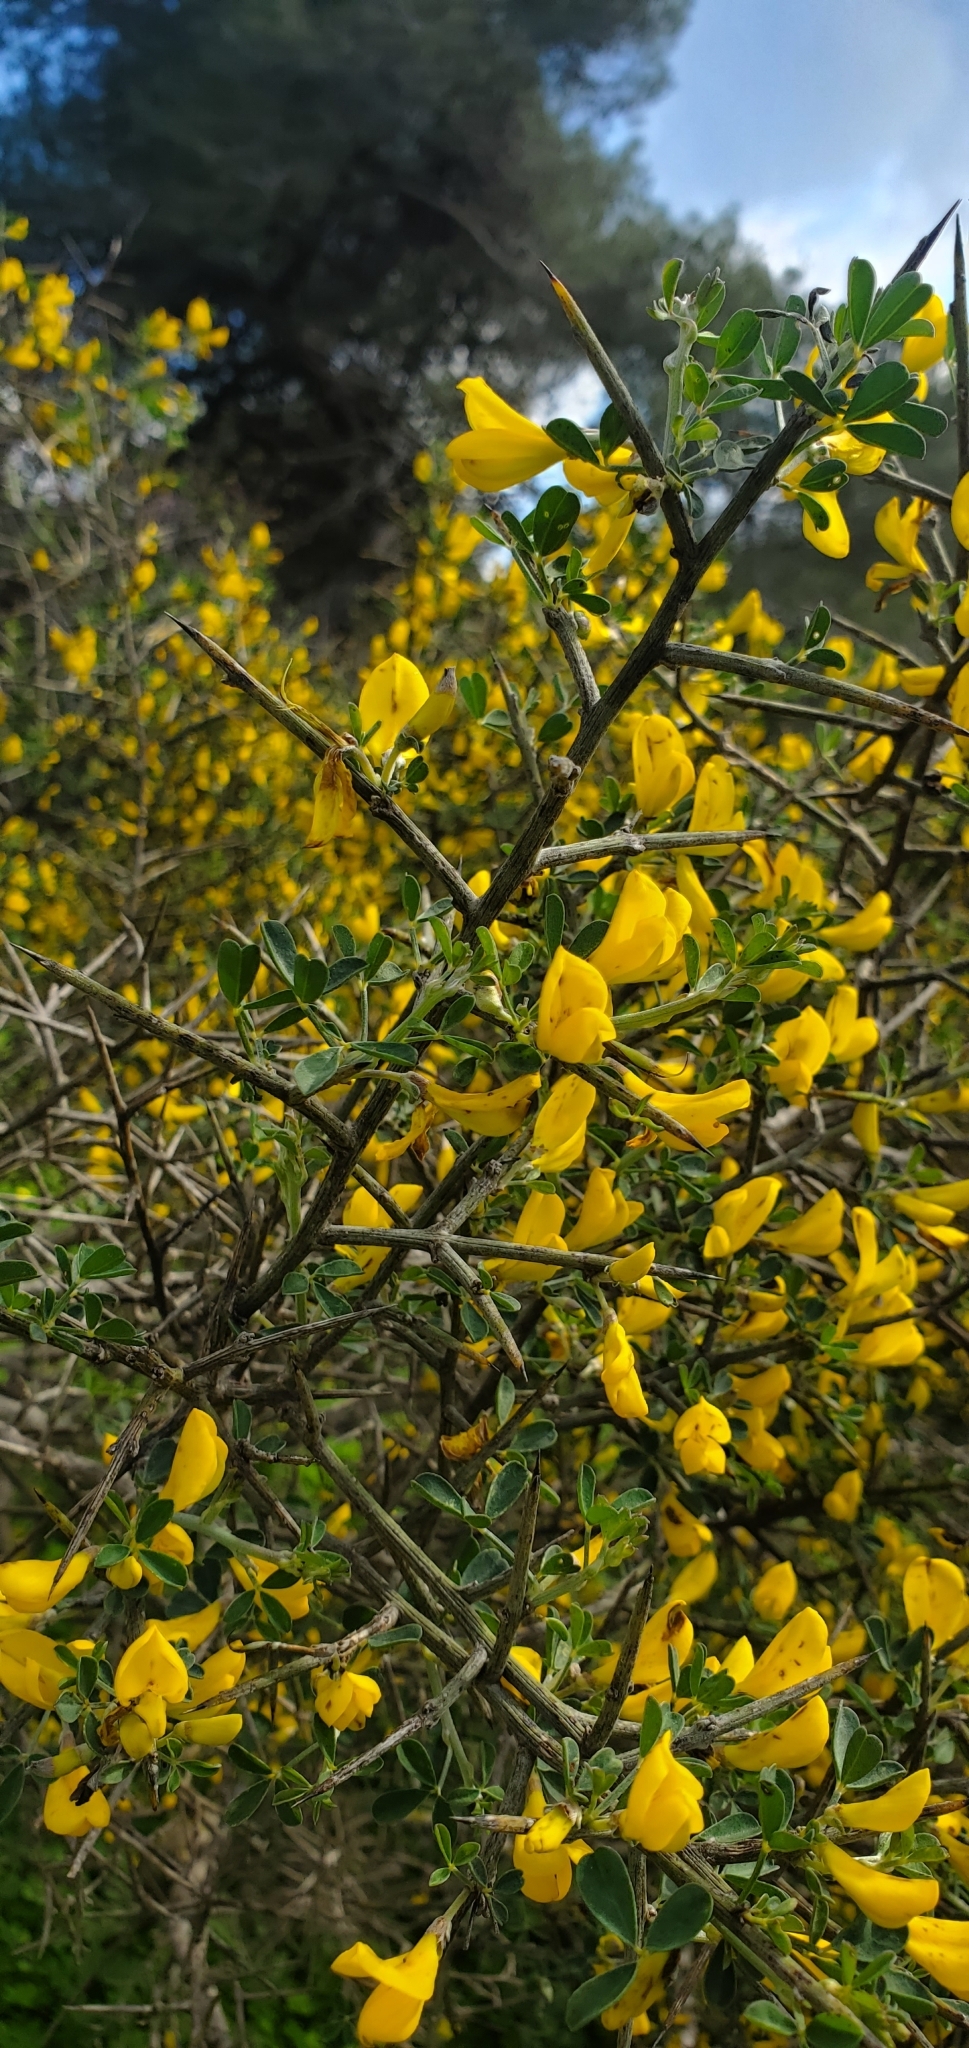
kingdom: Plantae
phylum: Tracheophyta
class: Magnoliopsida
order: Fabales
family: Fabaceae
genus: Calicotome
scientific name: Calicotome villosa
